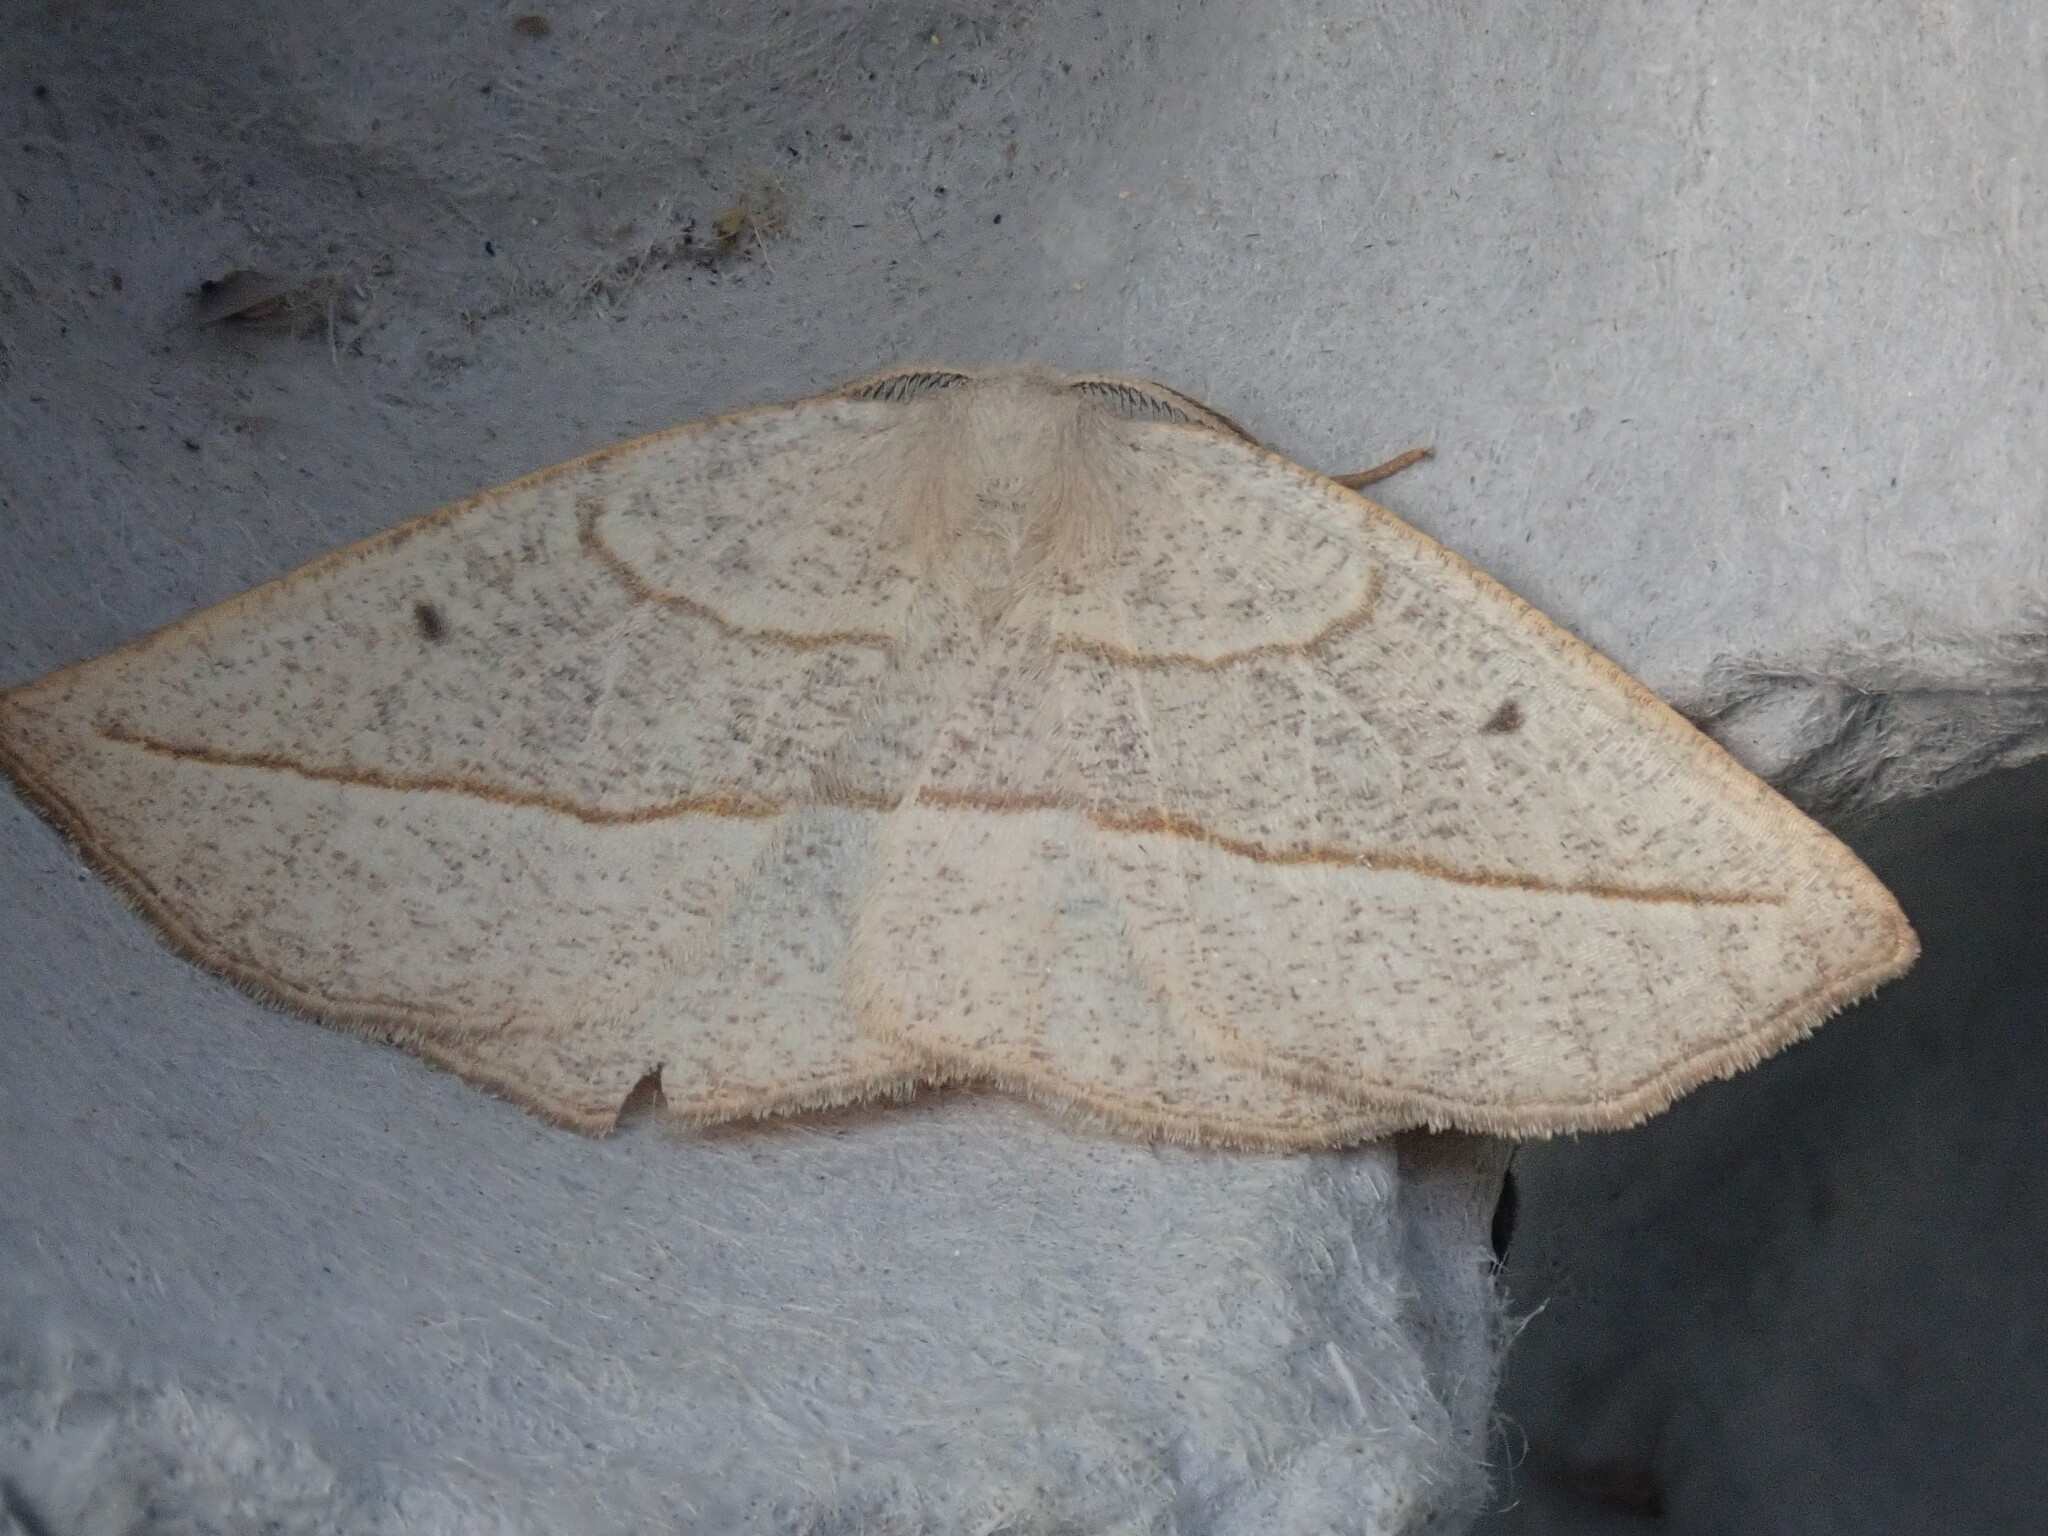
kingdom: Animalia
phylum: Arthropoda
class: Insecta
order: Lepidoptera
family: Geometridae
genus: Eusarca
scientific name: Eusarca confusaria
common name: Confused eusarca
